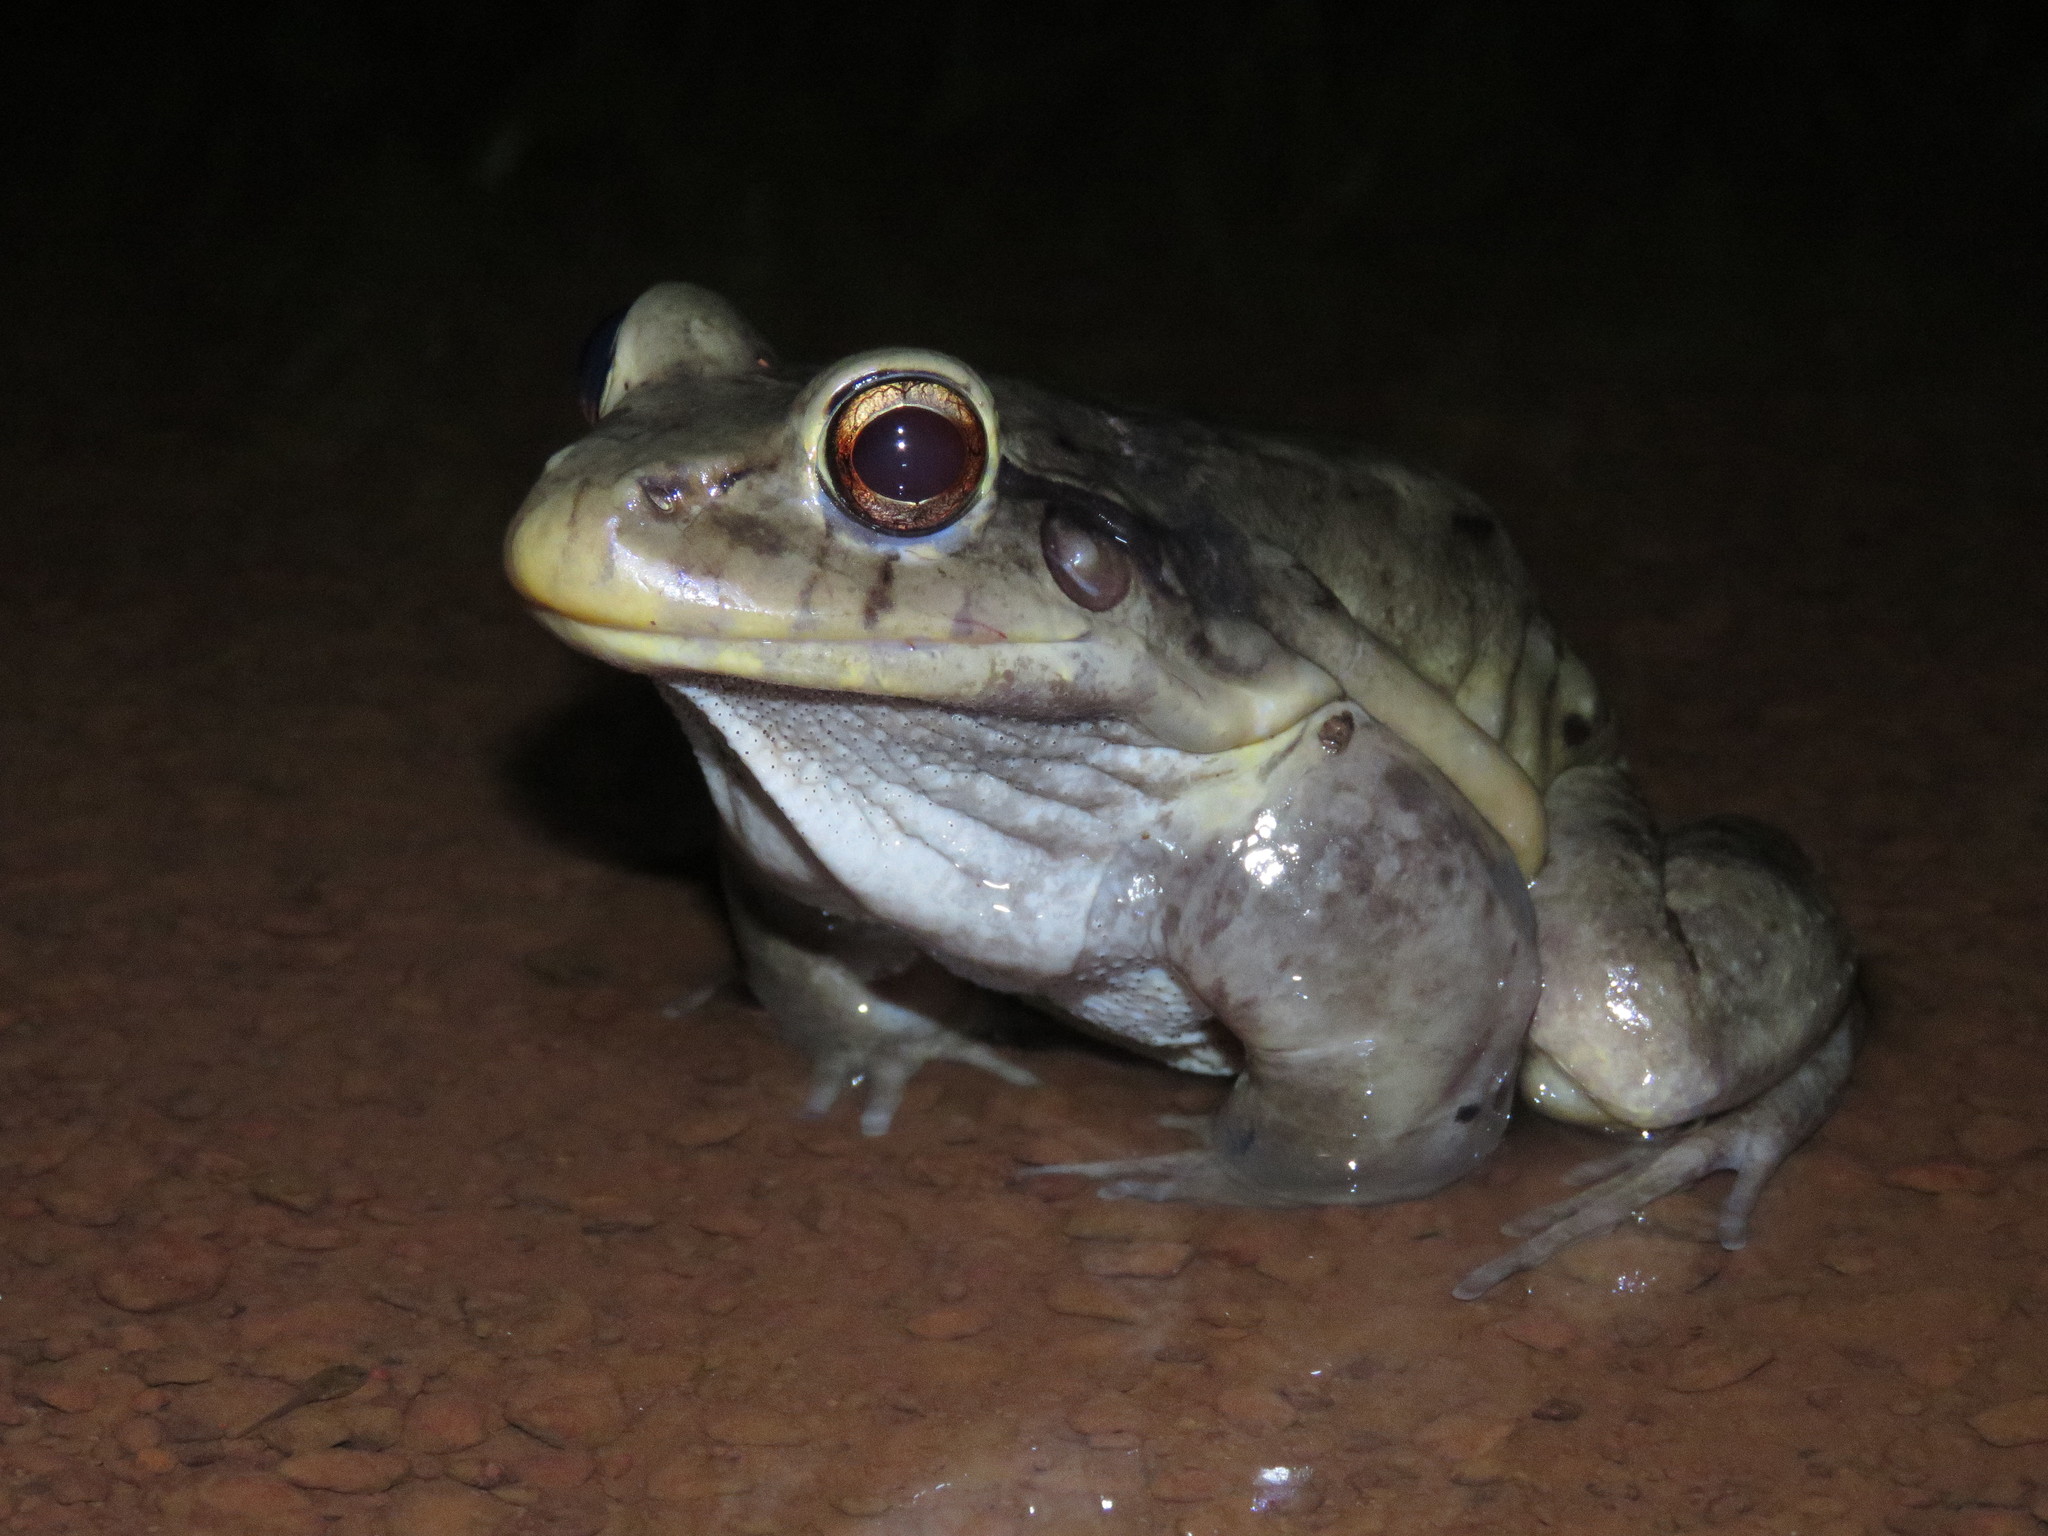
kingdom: Animalia
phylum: Chordata
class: Amphibia
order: Anura
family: Leptodactylidae
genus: Leptodactylus
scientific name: Leptodactylus vastus
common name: Northeastern pepper frog
